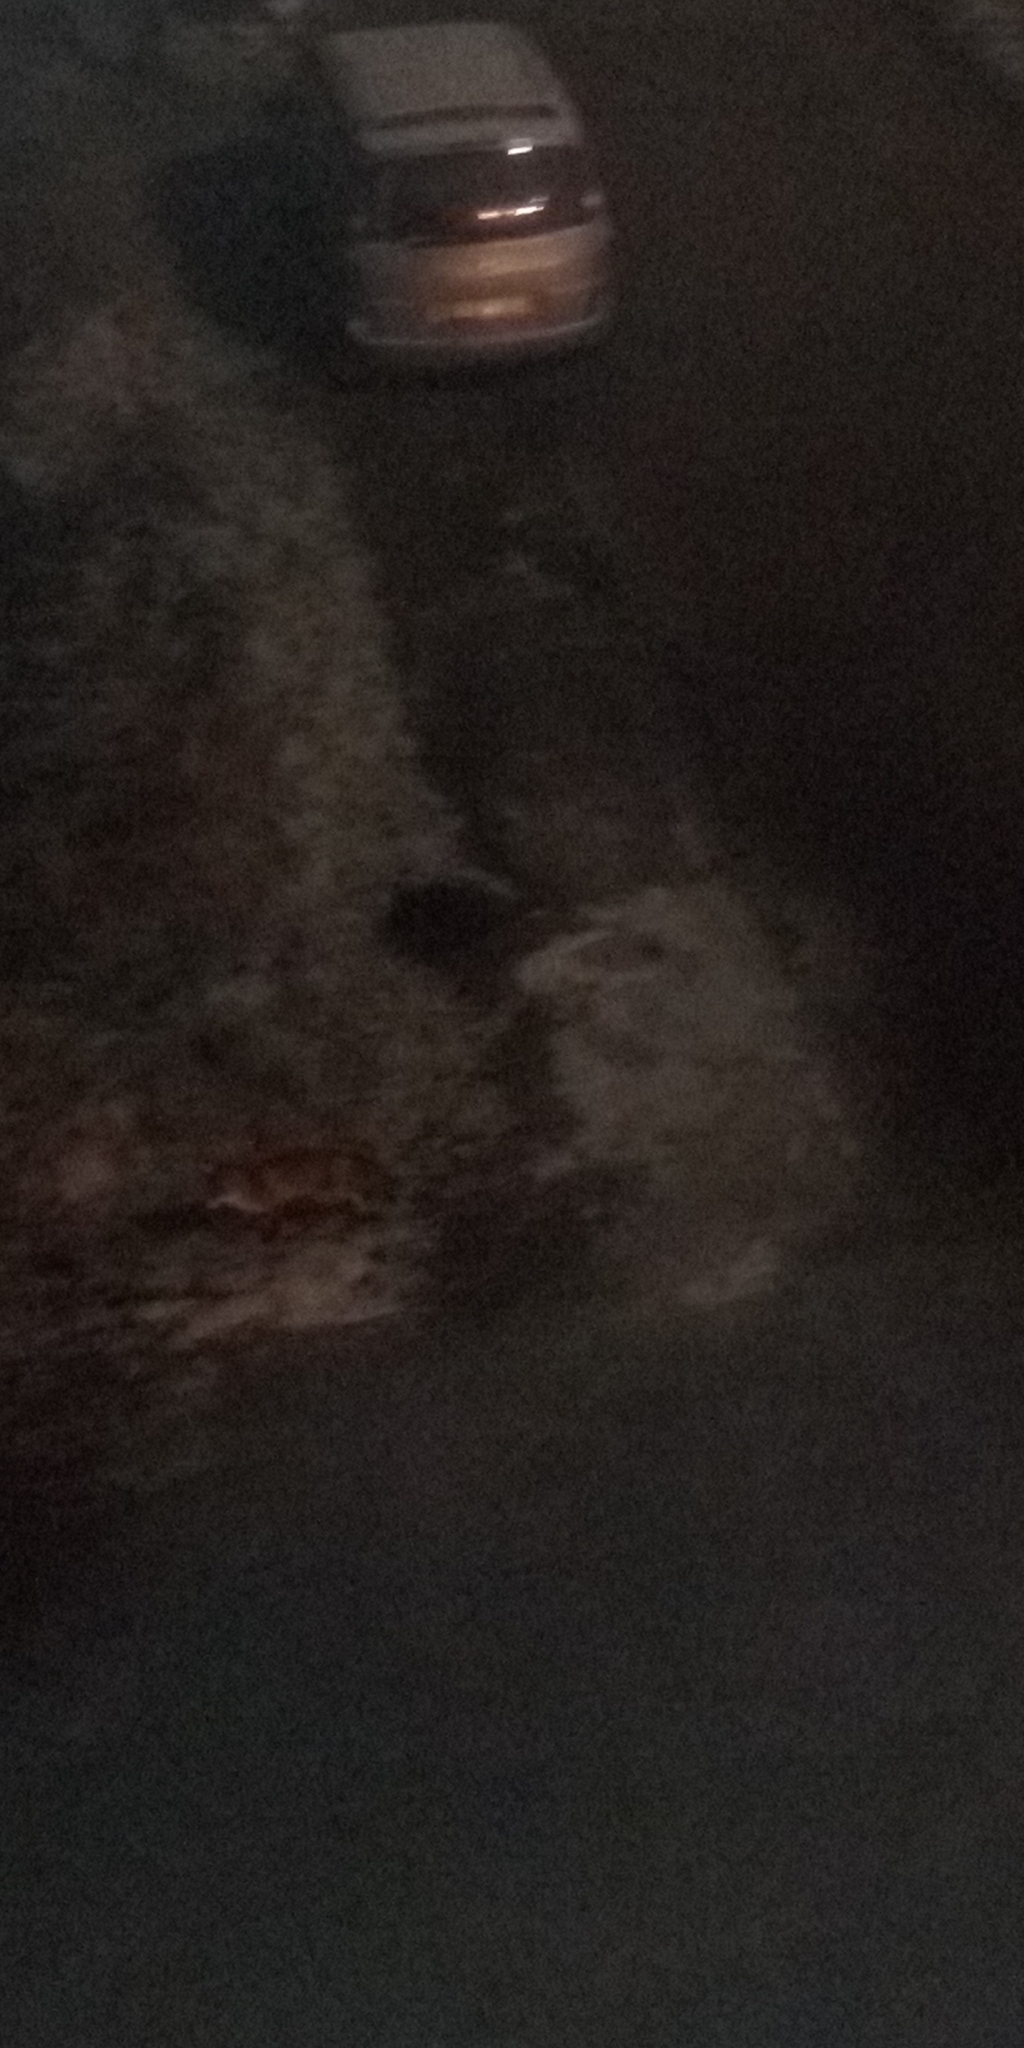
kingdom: Animalia
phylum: Chordata
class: Mammalia
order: Carnivora
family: Canidae
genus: Vulpes
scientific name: Vulpes vulpes
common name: Red fox
